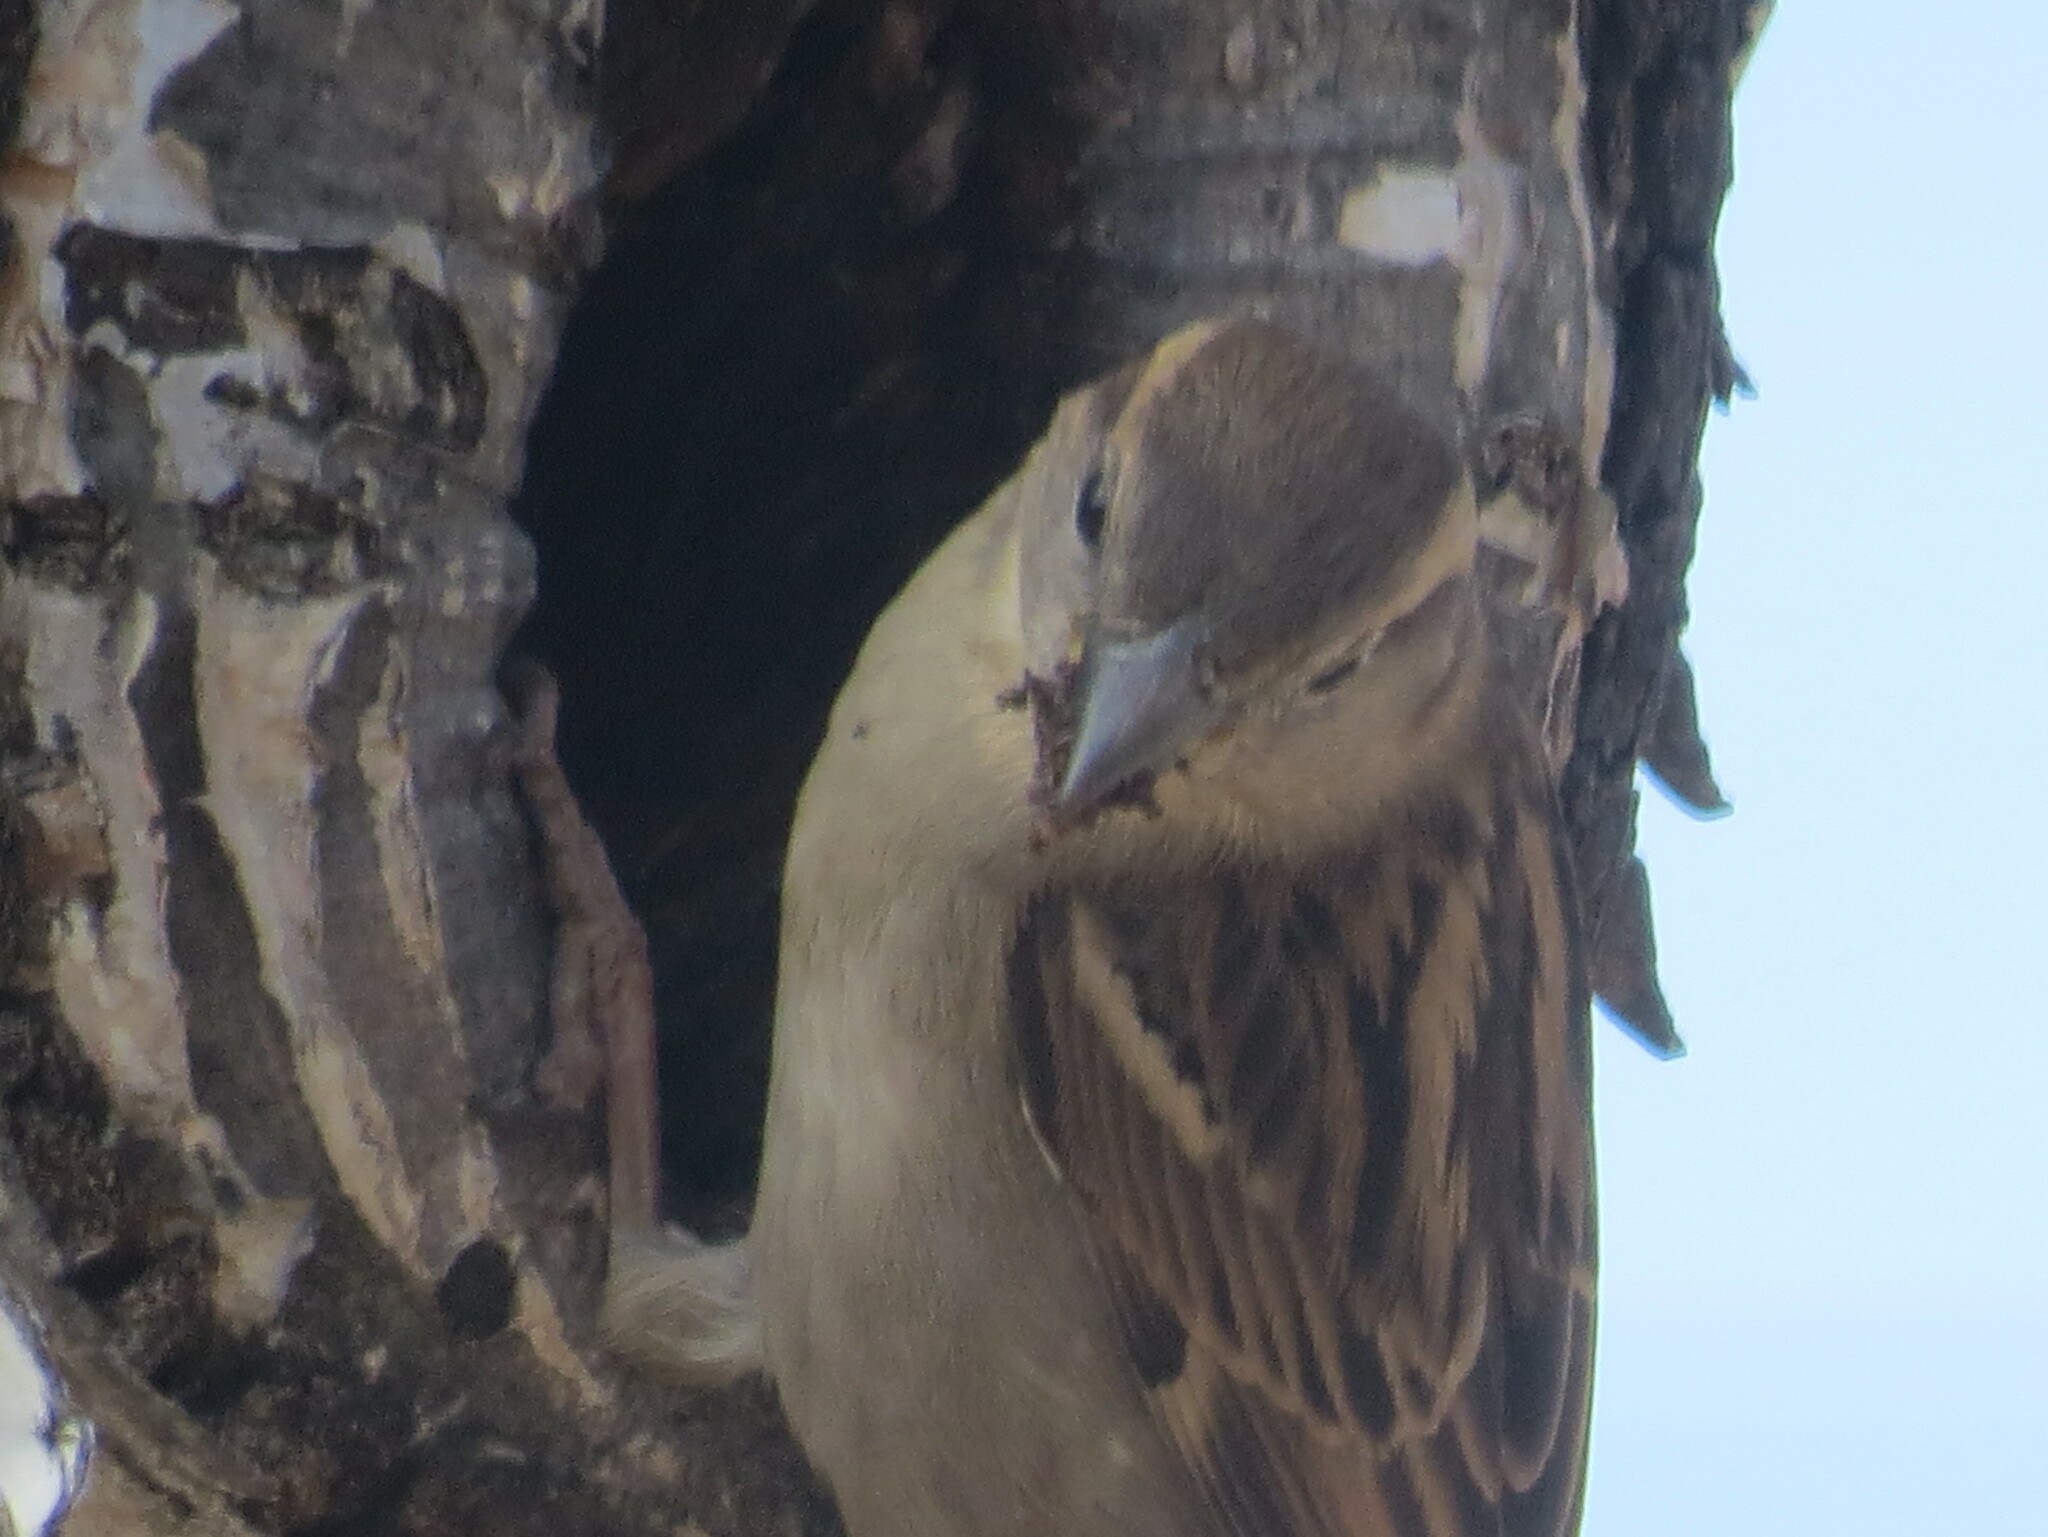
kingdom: Animalia
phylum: Chordata
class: Aves
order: Passeriformes
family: Passeridae
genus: Passer
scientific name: Passer domesticus
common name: House sparrow
